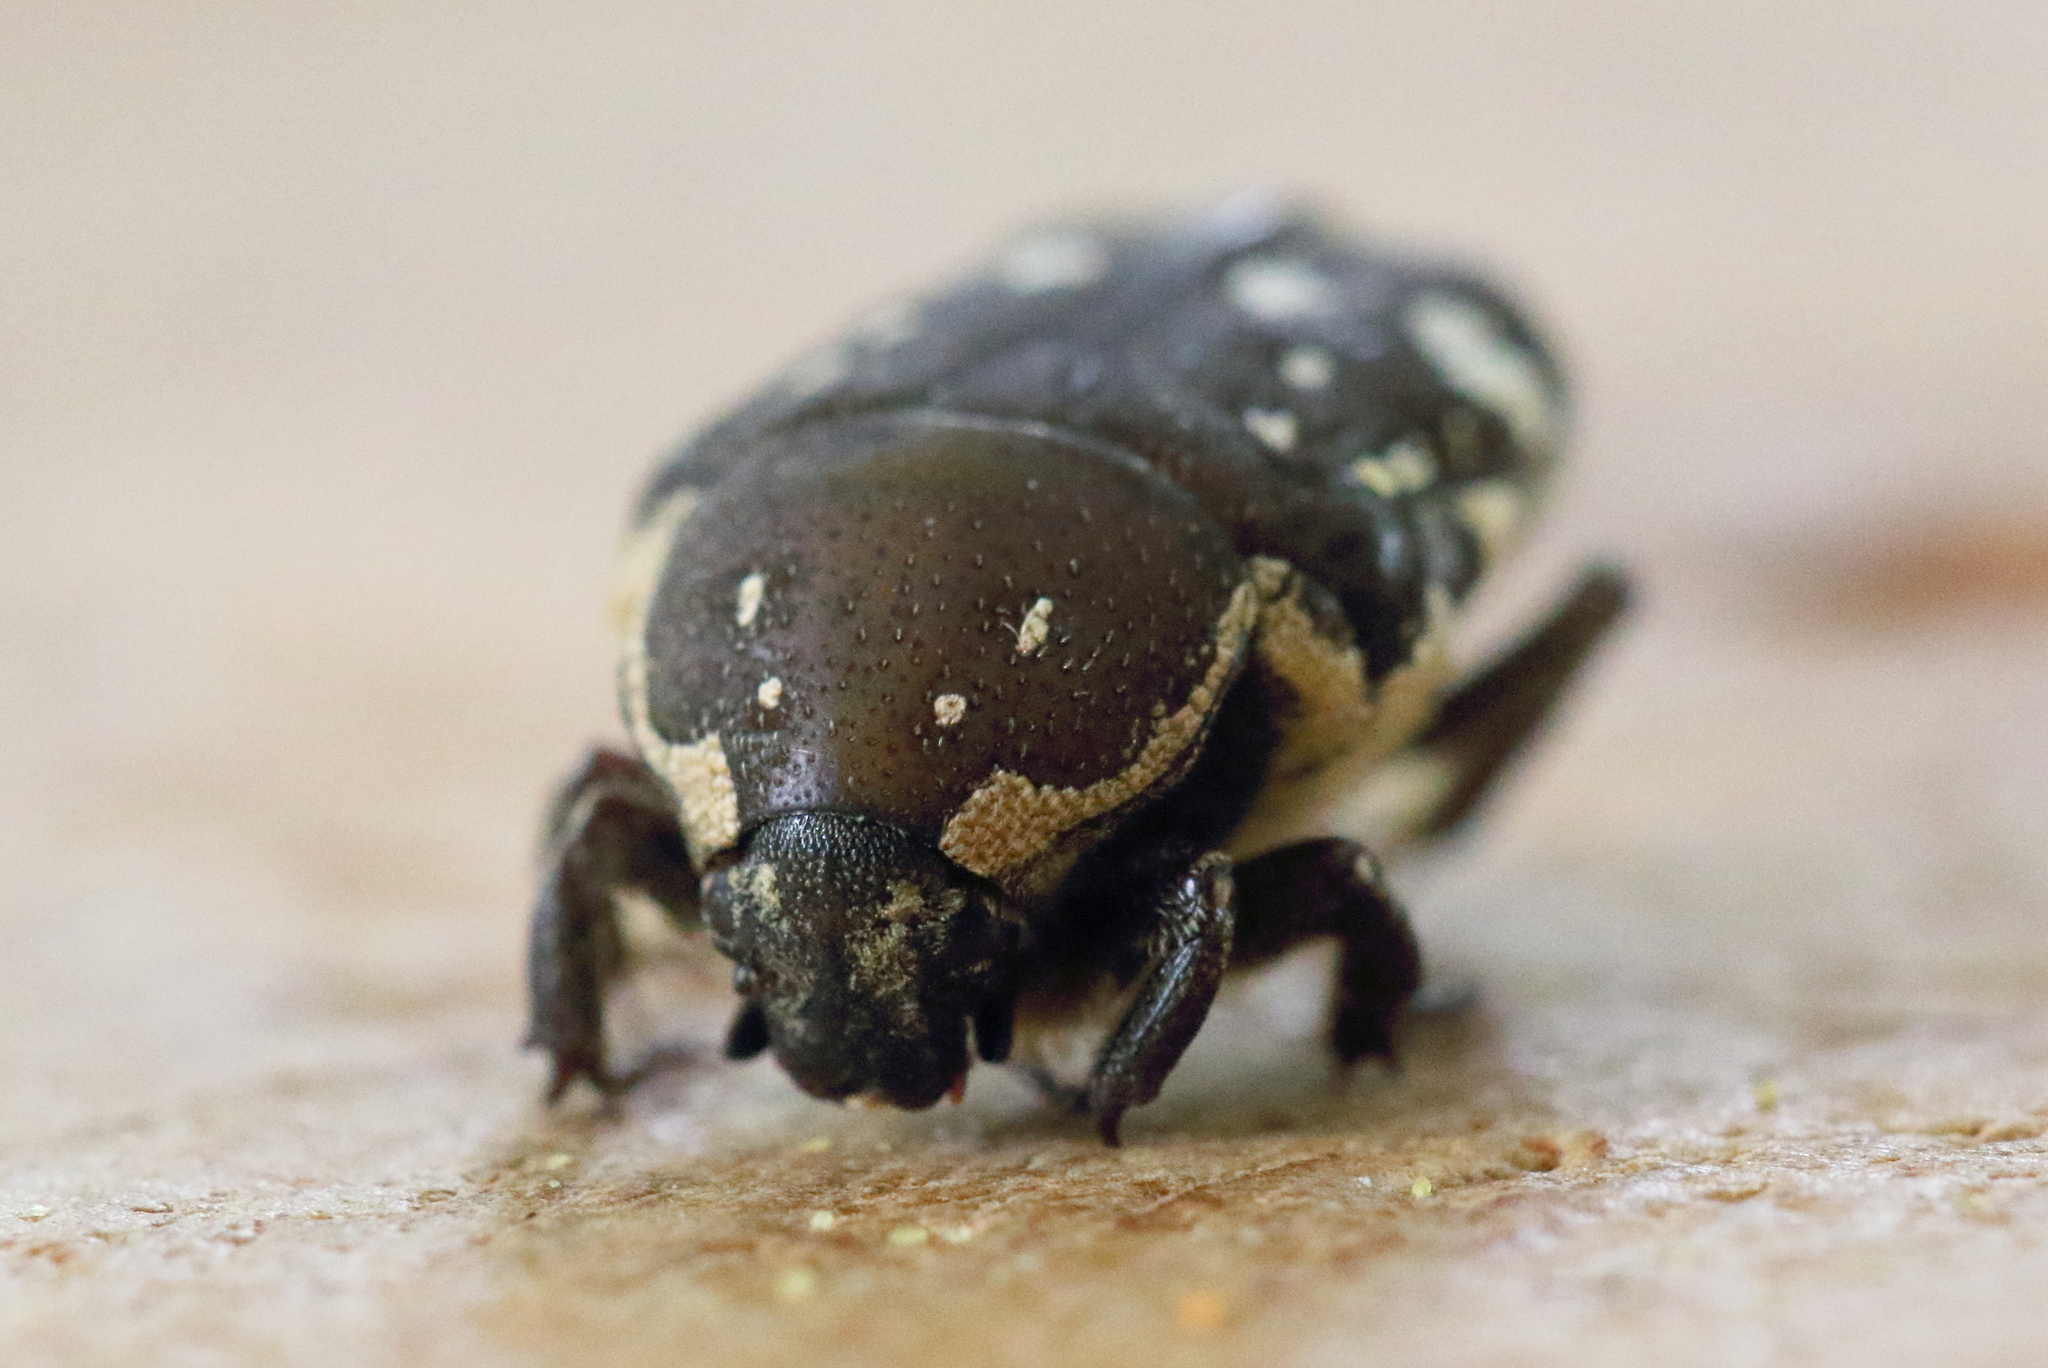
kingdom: Animalia
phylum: Arthropoda
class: Insecta
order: Coleoptera
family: Scarabaeidae
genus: Glycyphana
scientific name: Glycyphana stolata
